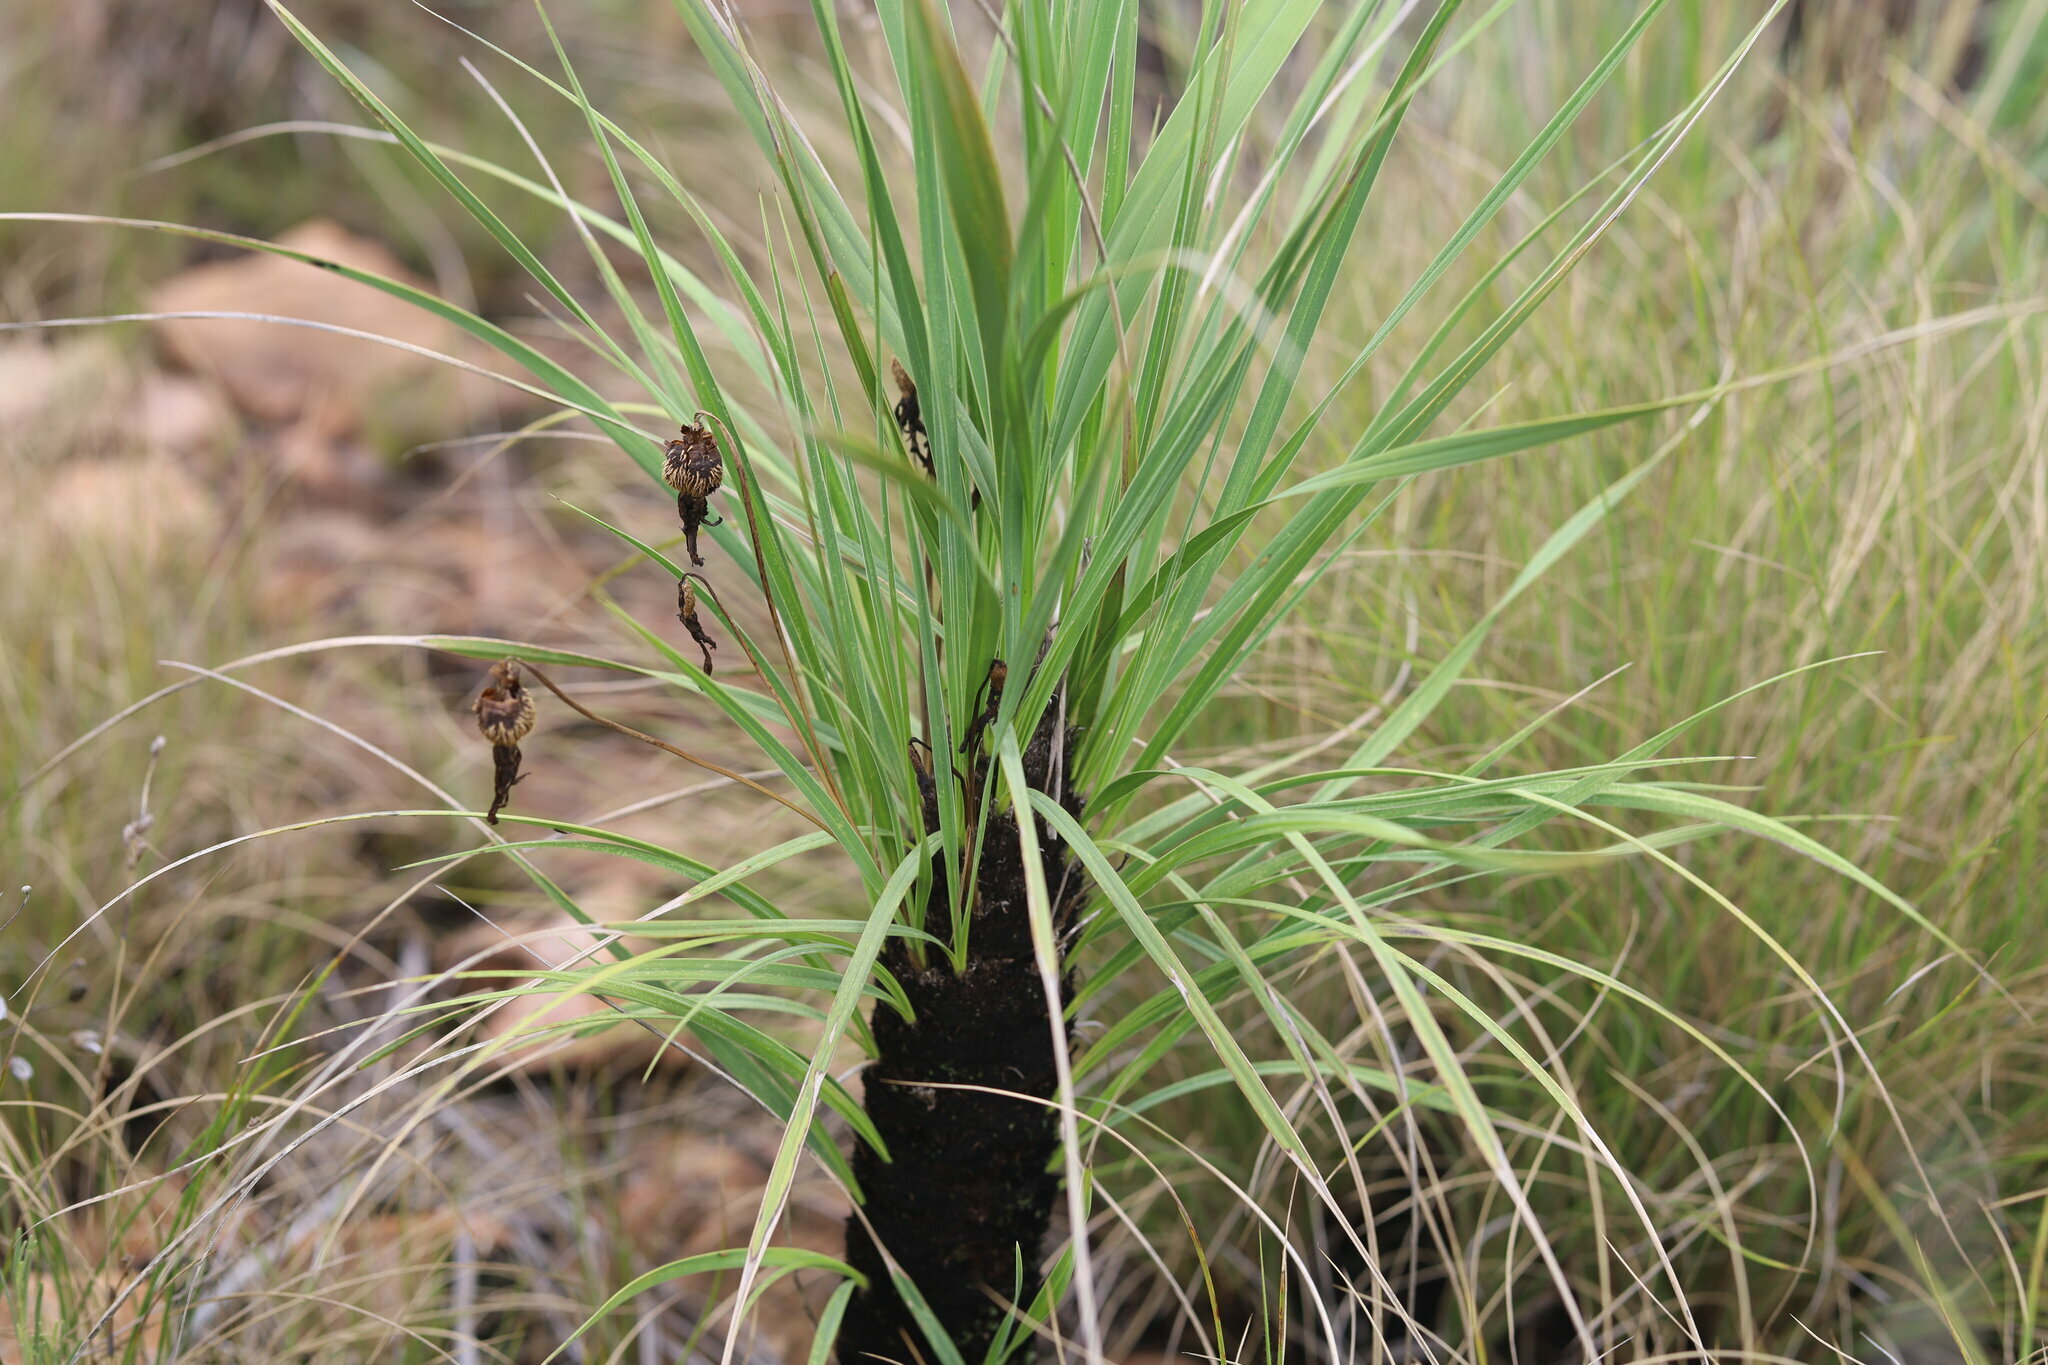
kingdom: Plantae
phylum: Tracheophyta
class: Liliopsida
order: Pandanales
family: Velloziaceae
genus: Xerophyta
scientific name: Xerophyta retinervis
